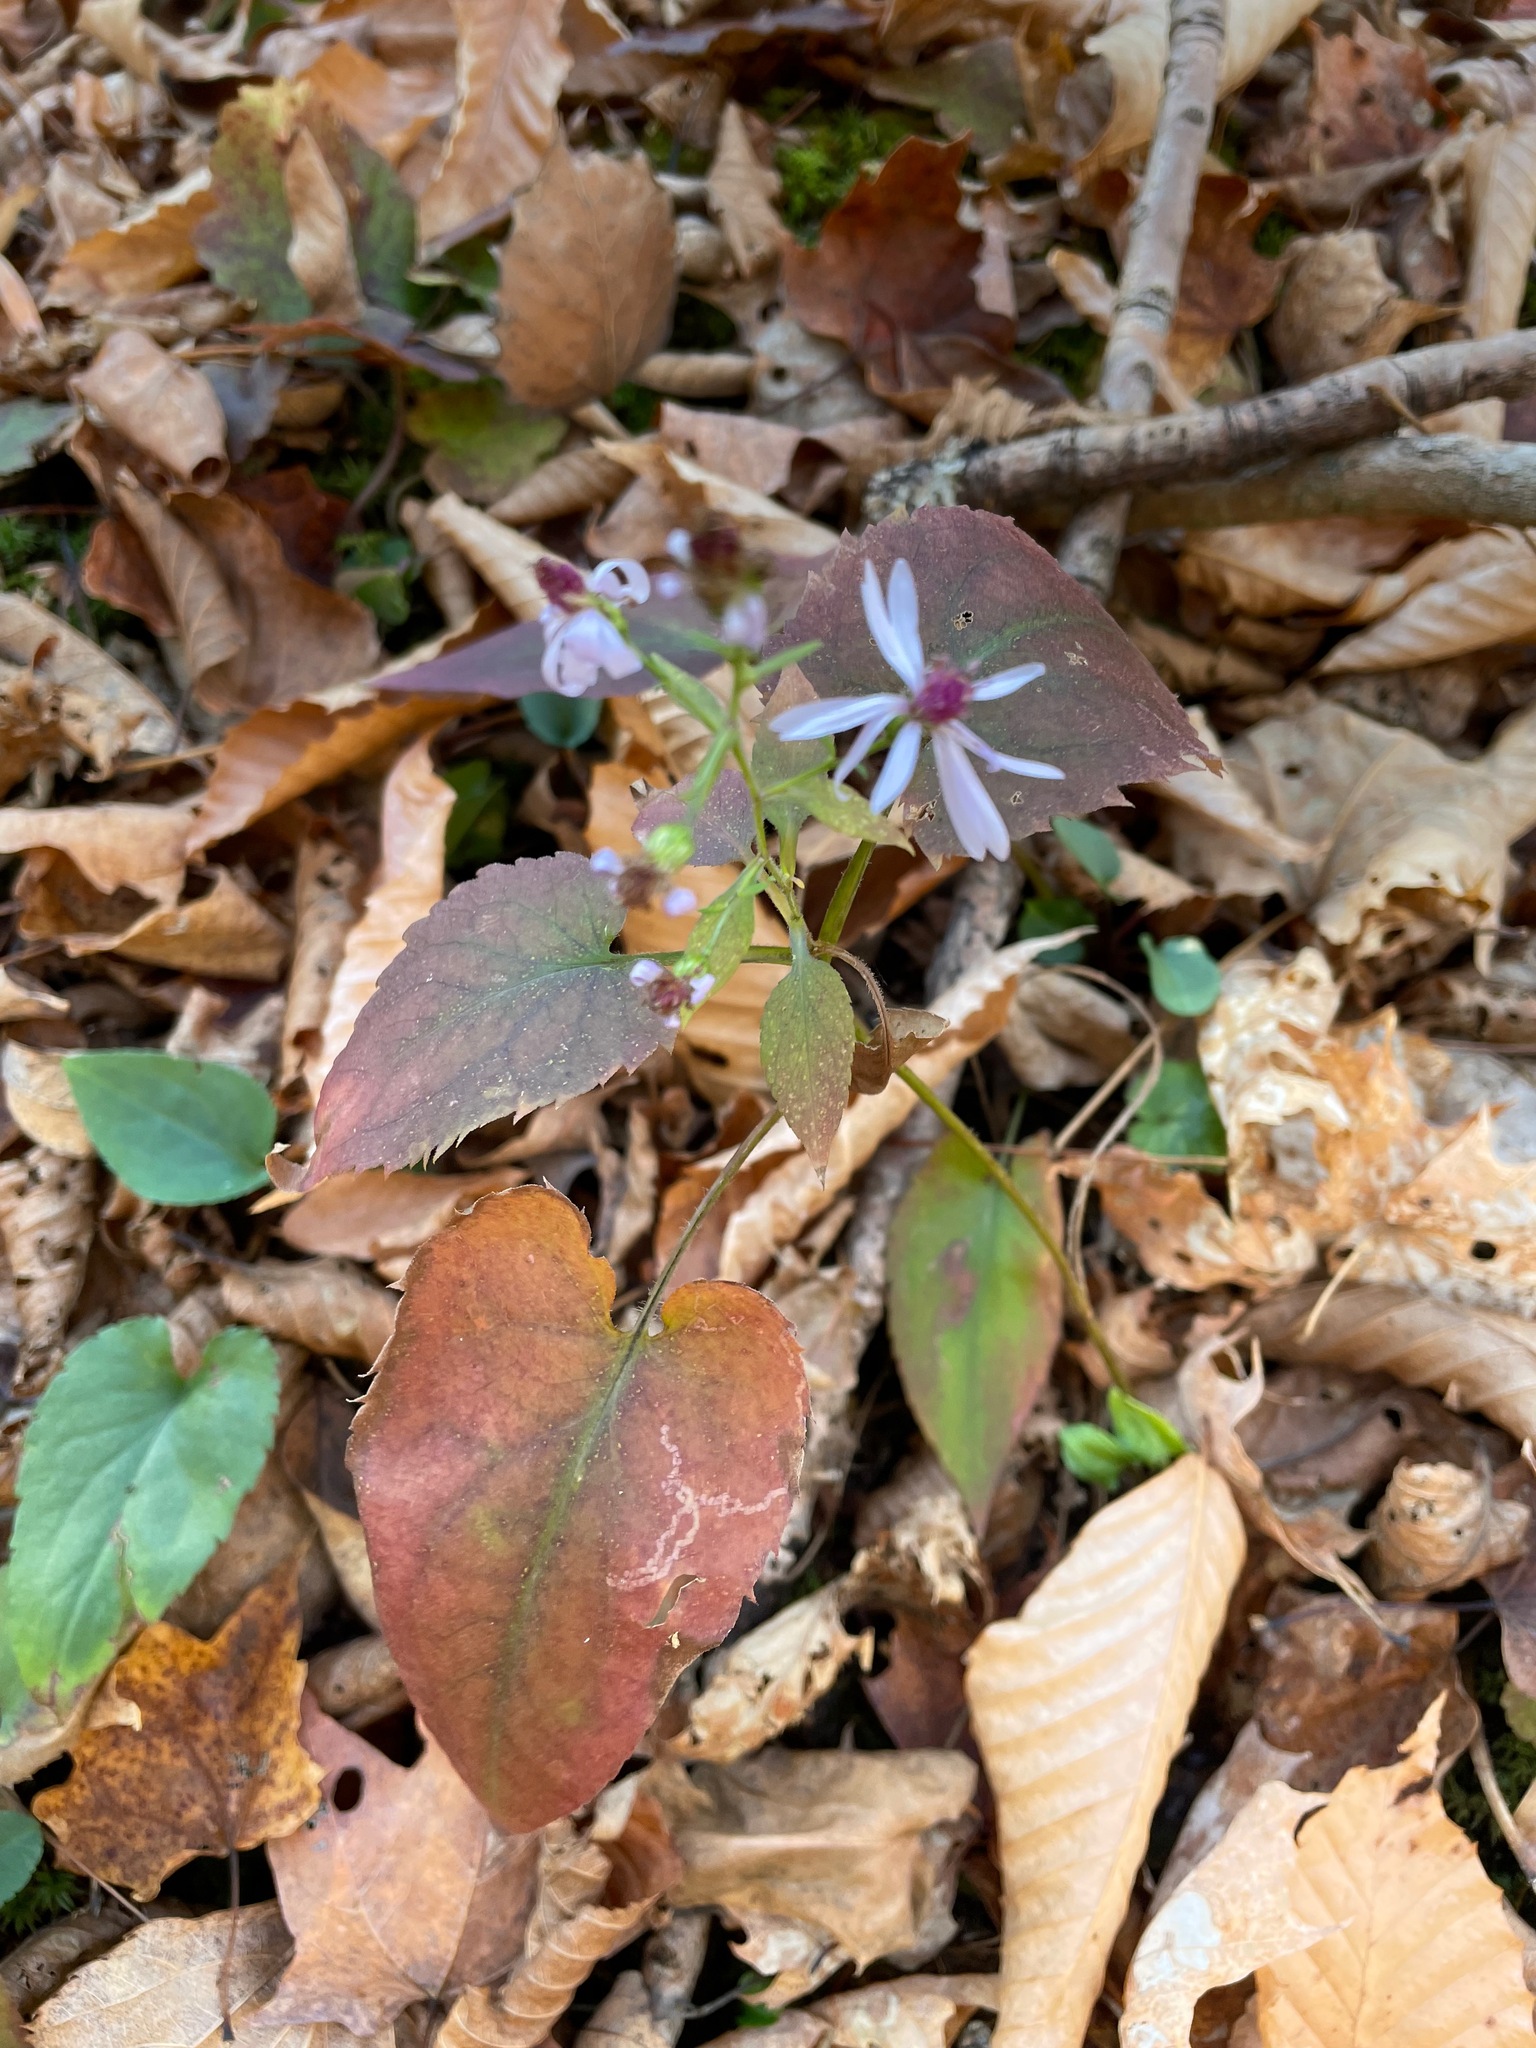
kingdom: Plantae
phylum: Tracheophyta
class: Magnoliopsida
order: Asterales
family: Asteraceae
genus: Symphyotrichum
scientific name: Symphyotrichum cordifolium
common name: Beeweed
